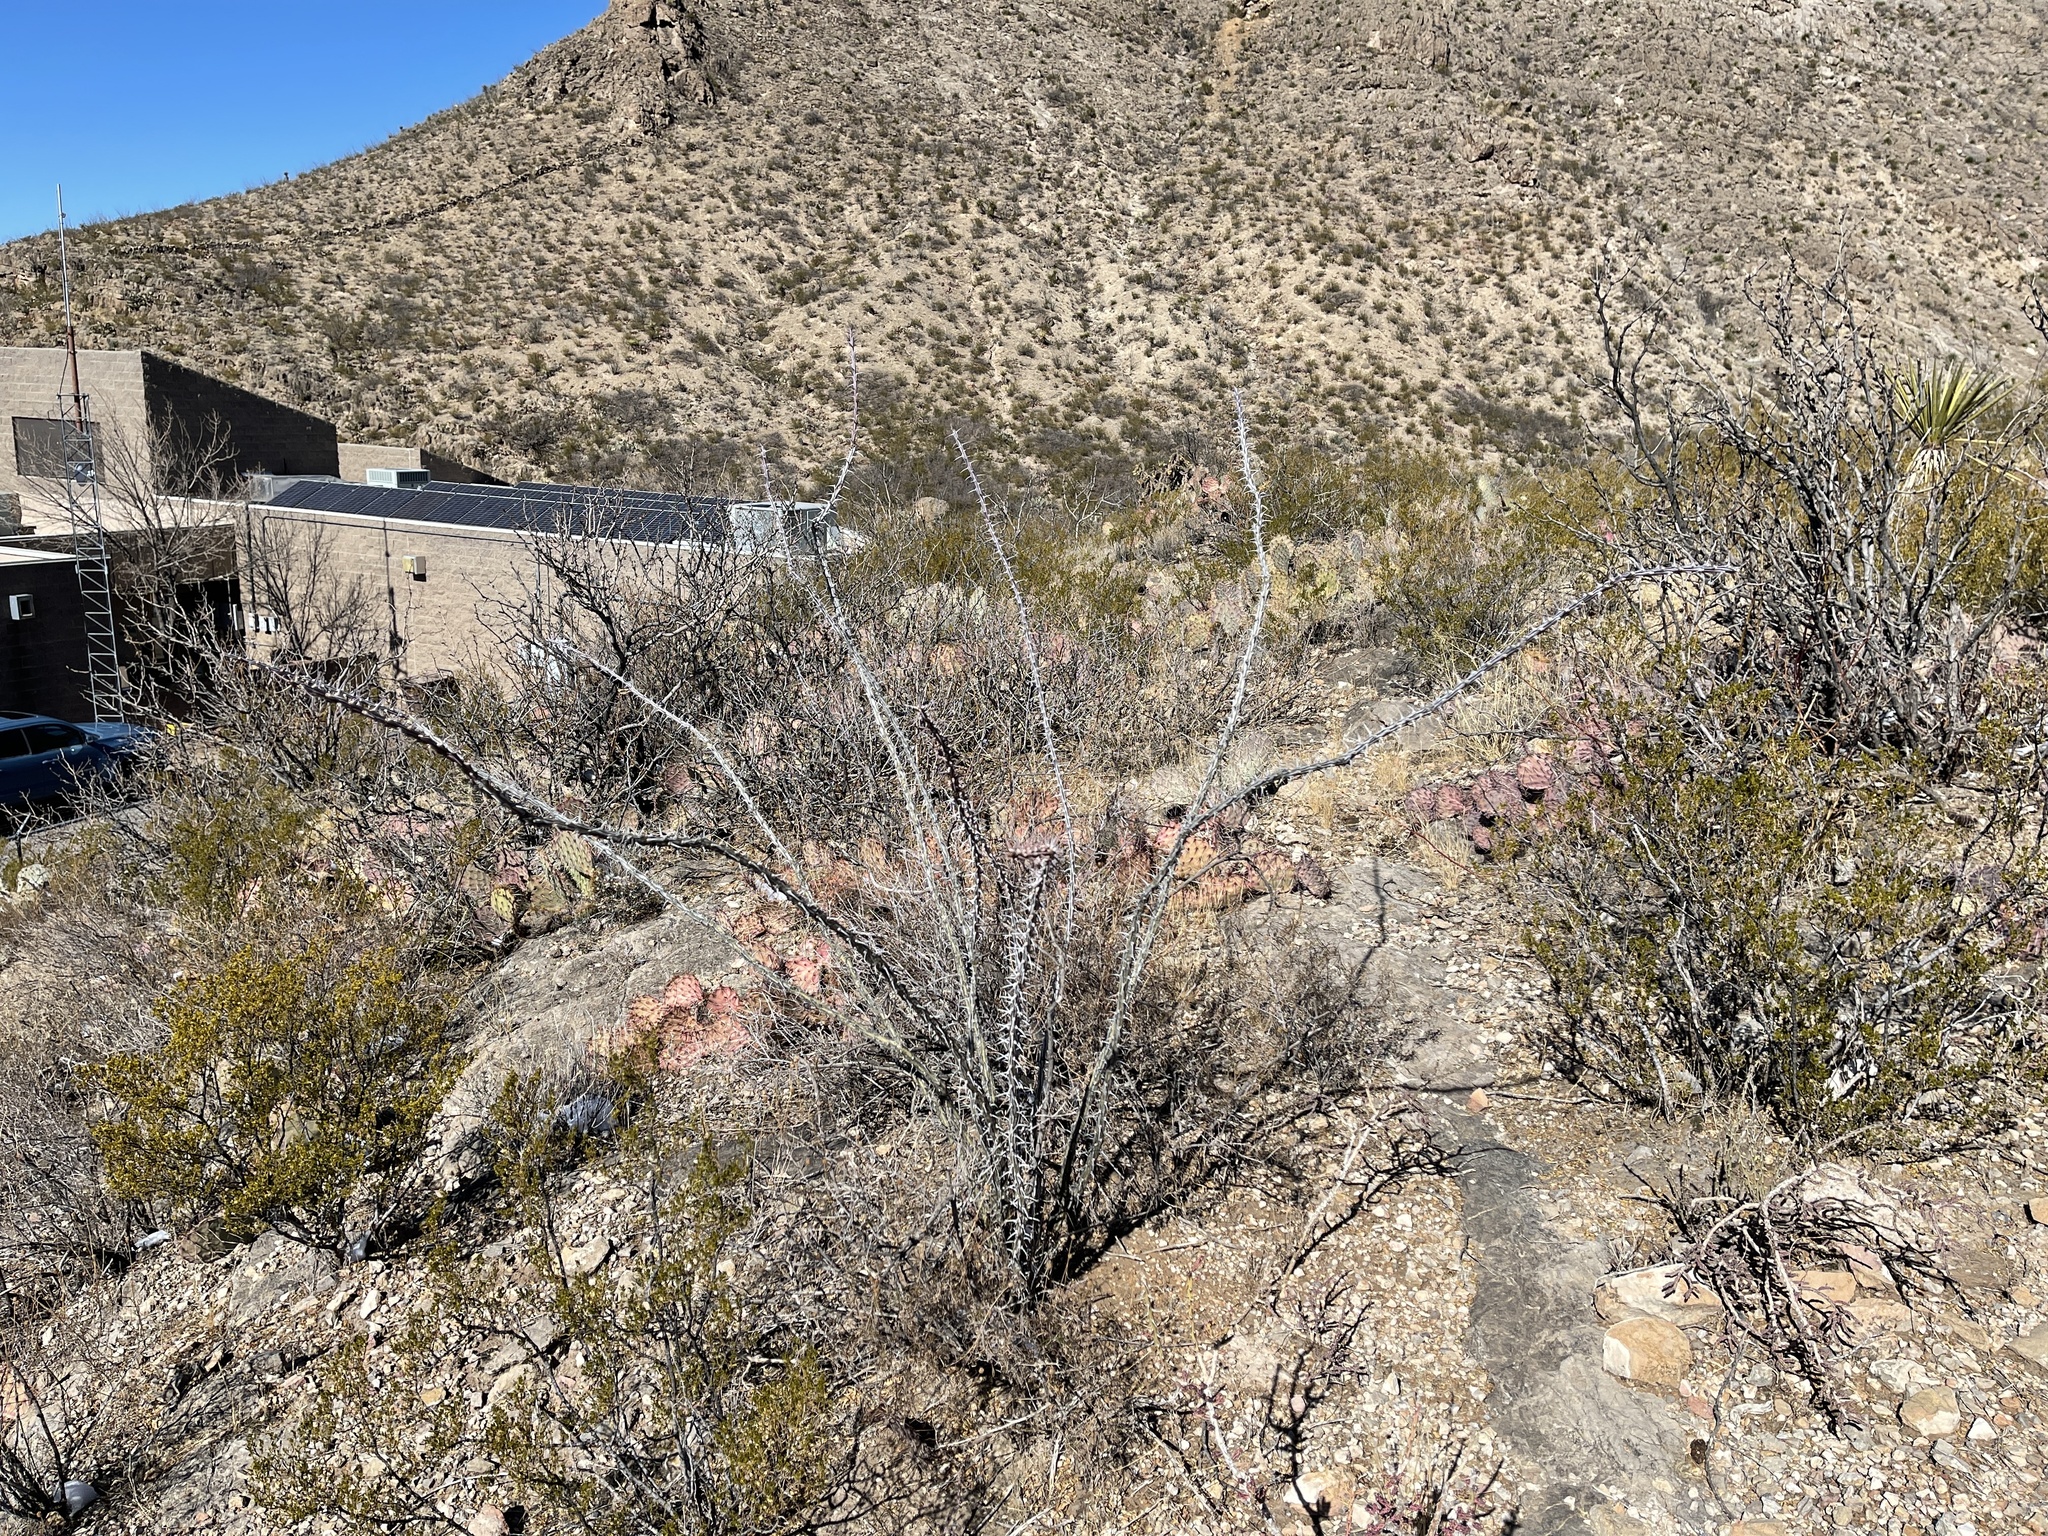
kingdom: Plantae
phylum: Tracheophyta
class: Magnoliopsida
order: Ericales
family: Fouquieriaceae
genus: Fouquieria
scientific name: Fouquieria splendens
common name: Vine-cactus
